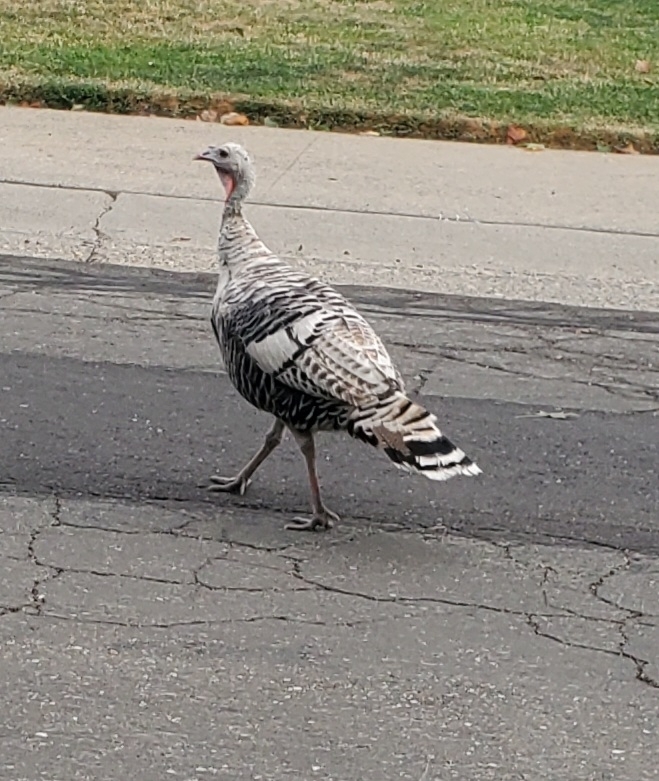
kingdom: Animalia
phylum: Chordata
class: Aves
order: Galliformes
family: Phasianidae
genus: Meleagris
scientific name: Meleagris gallopavo
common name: Wild turkey
